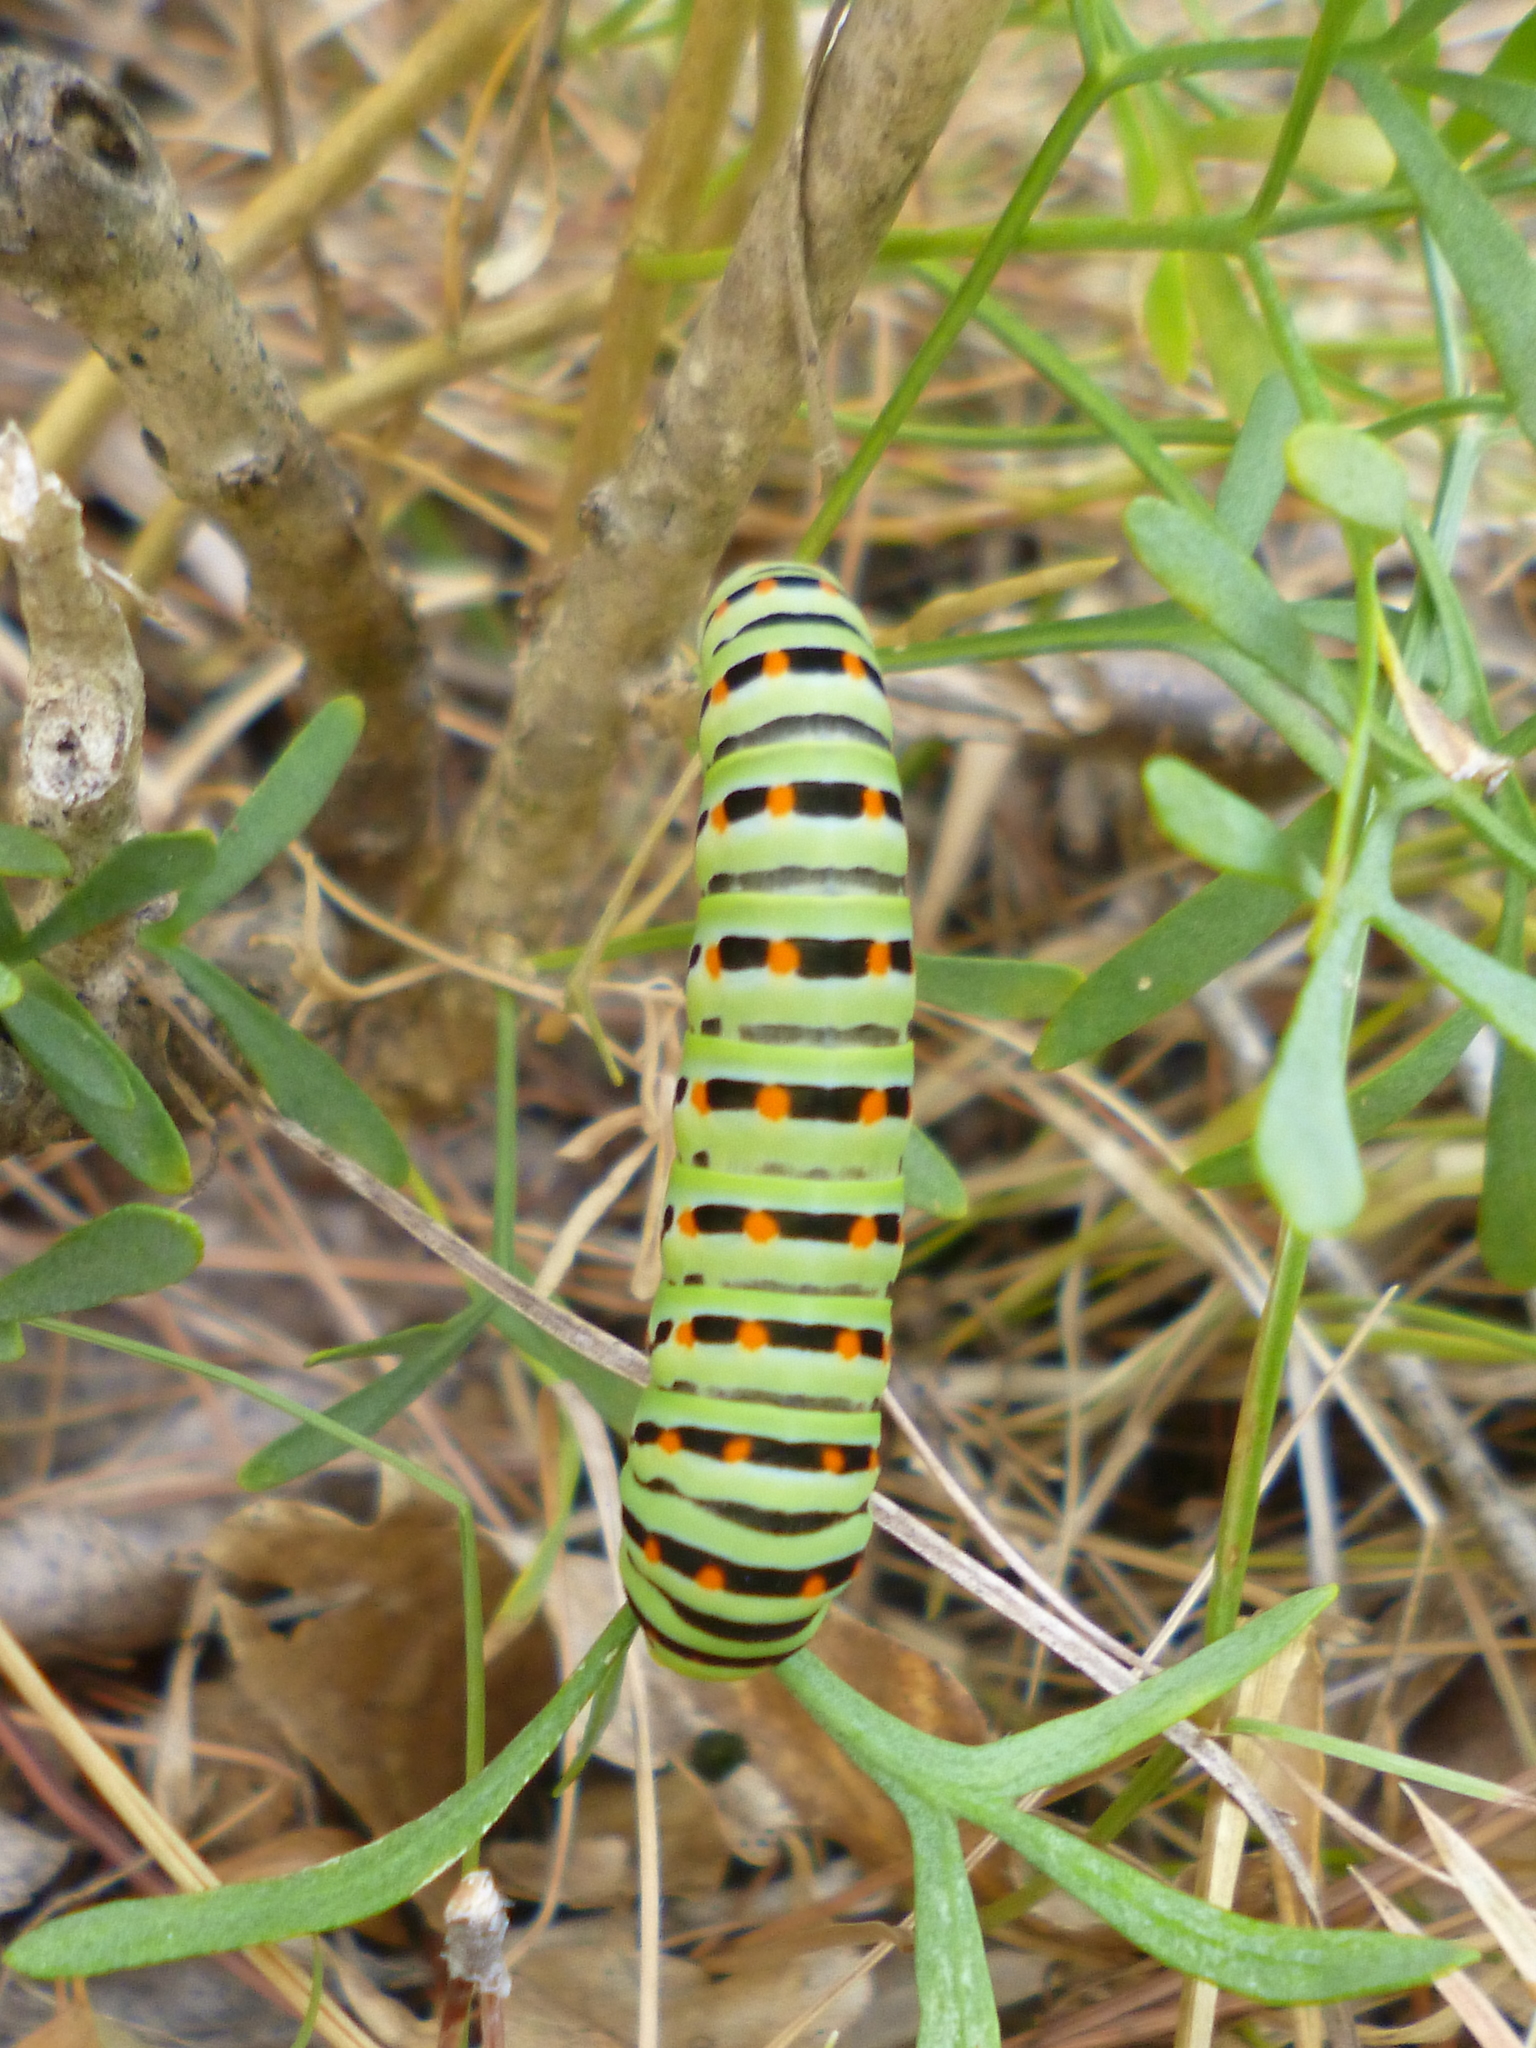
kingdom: Animalia
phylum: Arthropoda
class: Insecta
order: Lepidoptera
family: Papilionidae
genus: Papilio
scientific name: Papilio machaon
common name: Swallowtail
